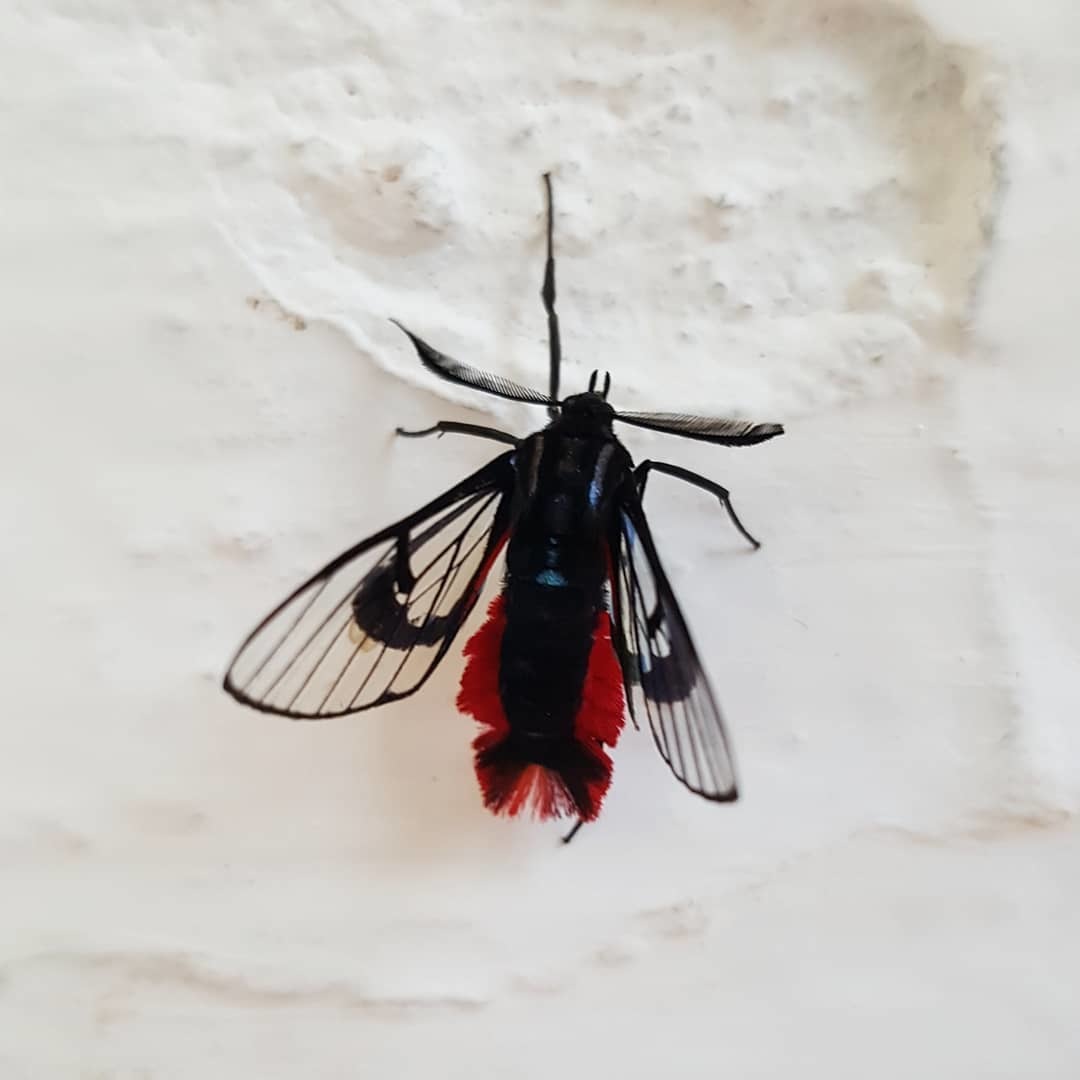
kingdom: Animalia
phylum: Arthropoda
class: Insecta
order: Lepidoptera
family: Erebidae
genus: Dinia
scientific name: Dinia eagrus
